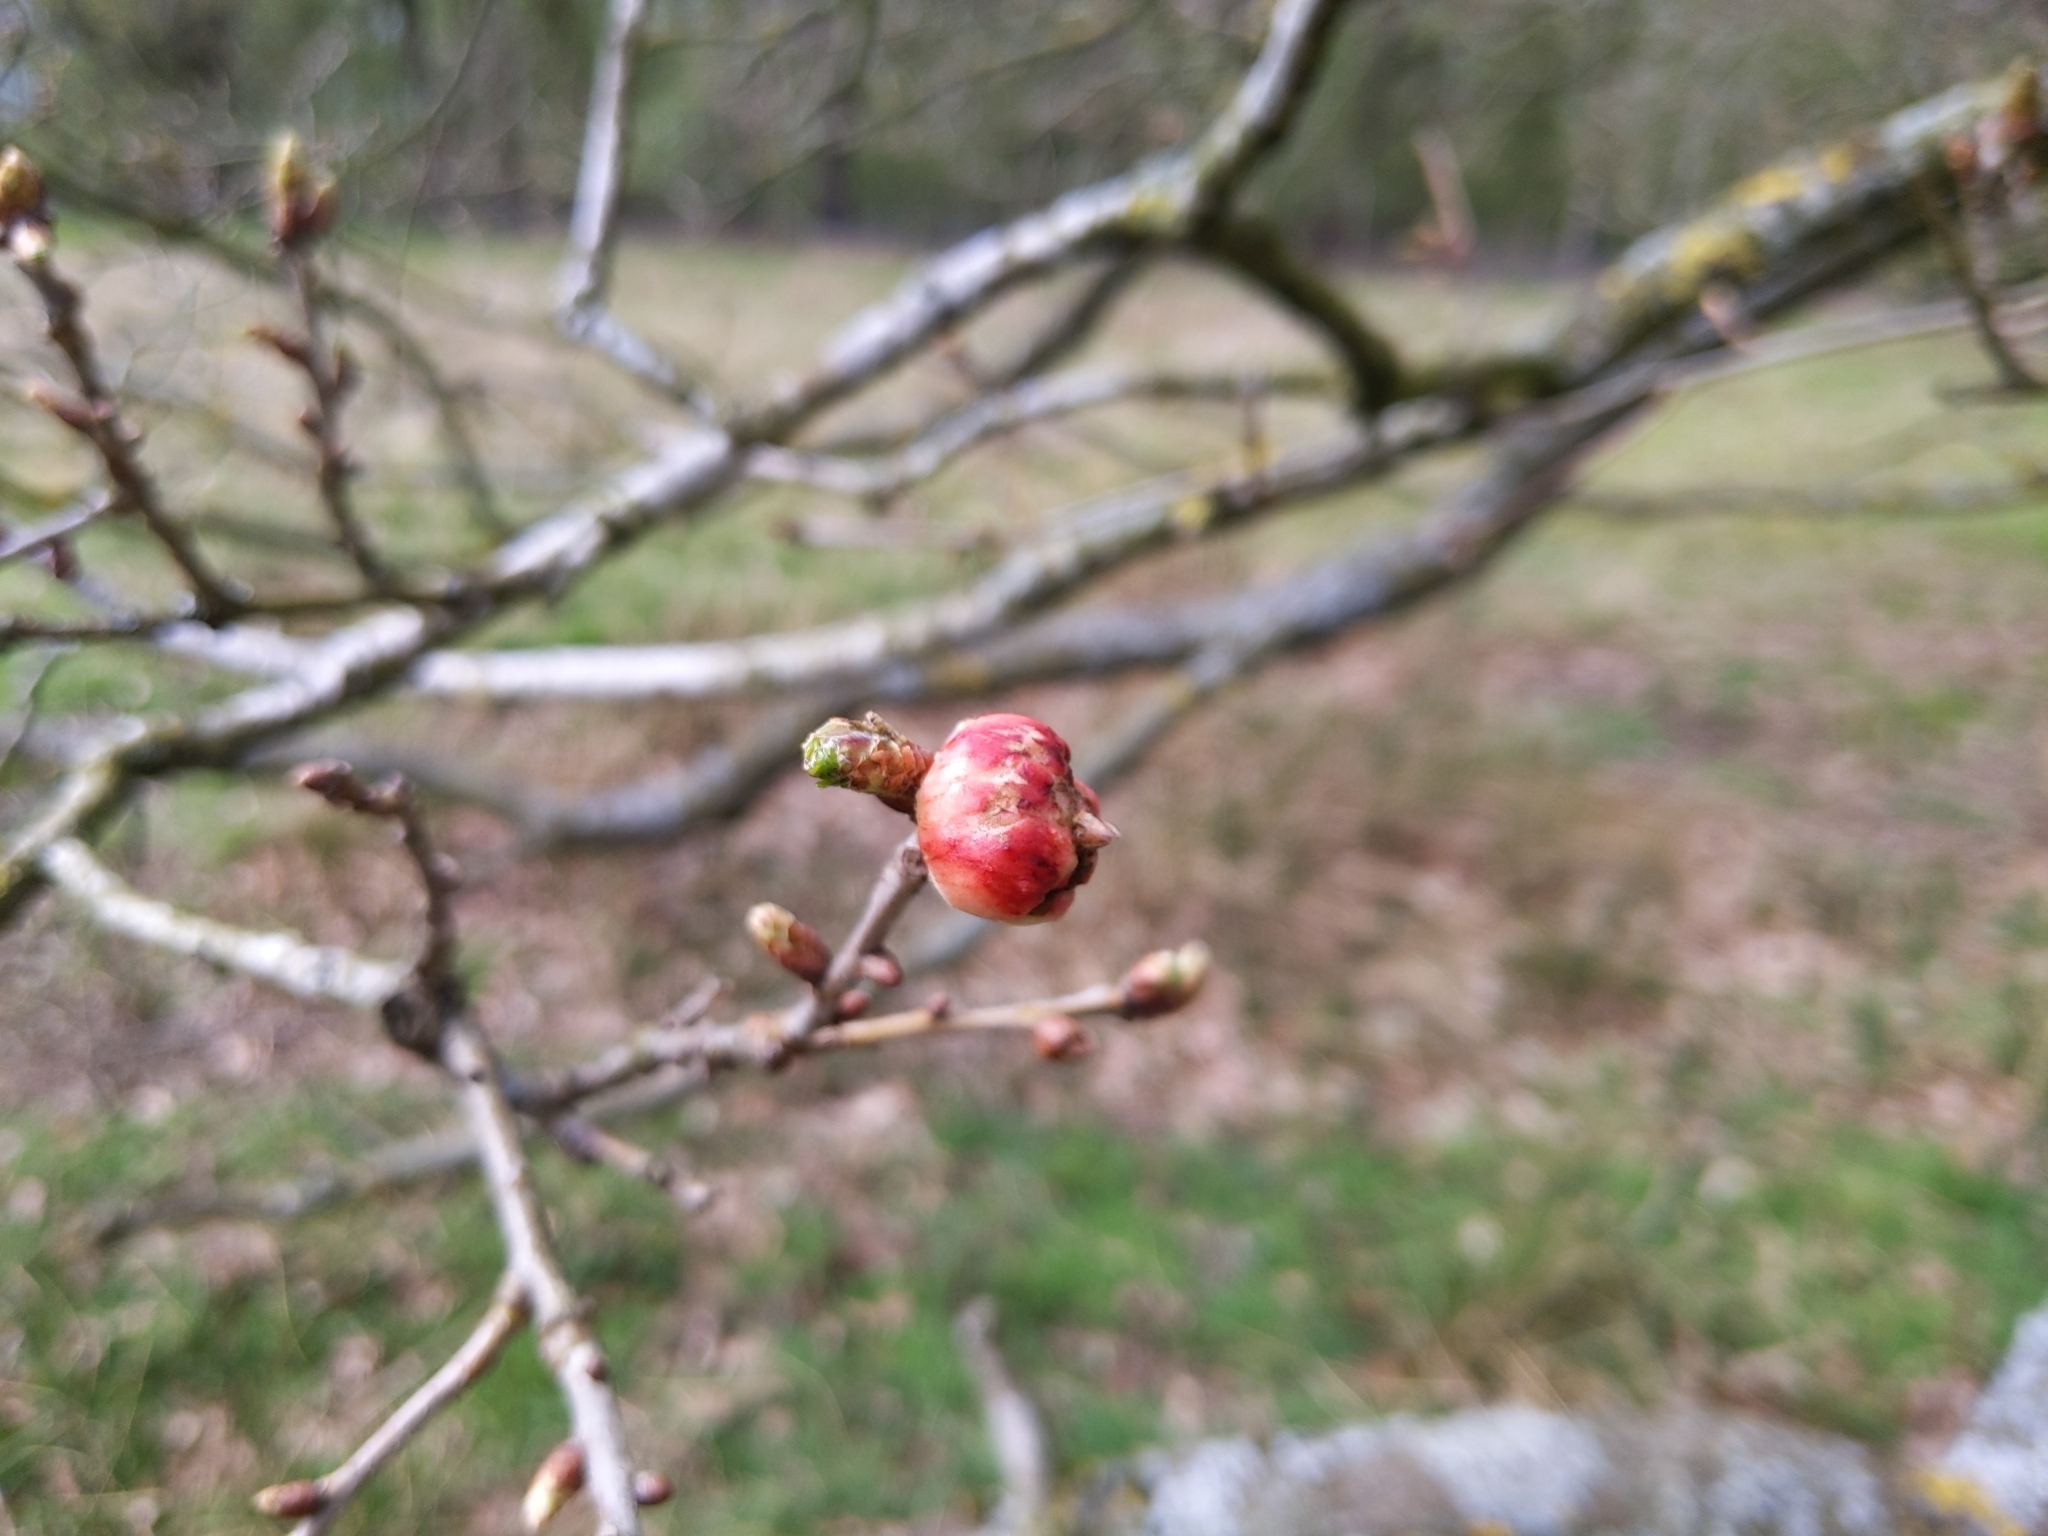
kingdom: Animalia
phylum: Arthropoda
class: Insecta
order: Hymenoptera
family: Cynipidae
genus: Biorhiza
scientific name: Biorhiza pallida
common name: Oak apple
